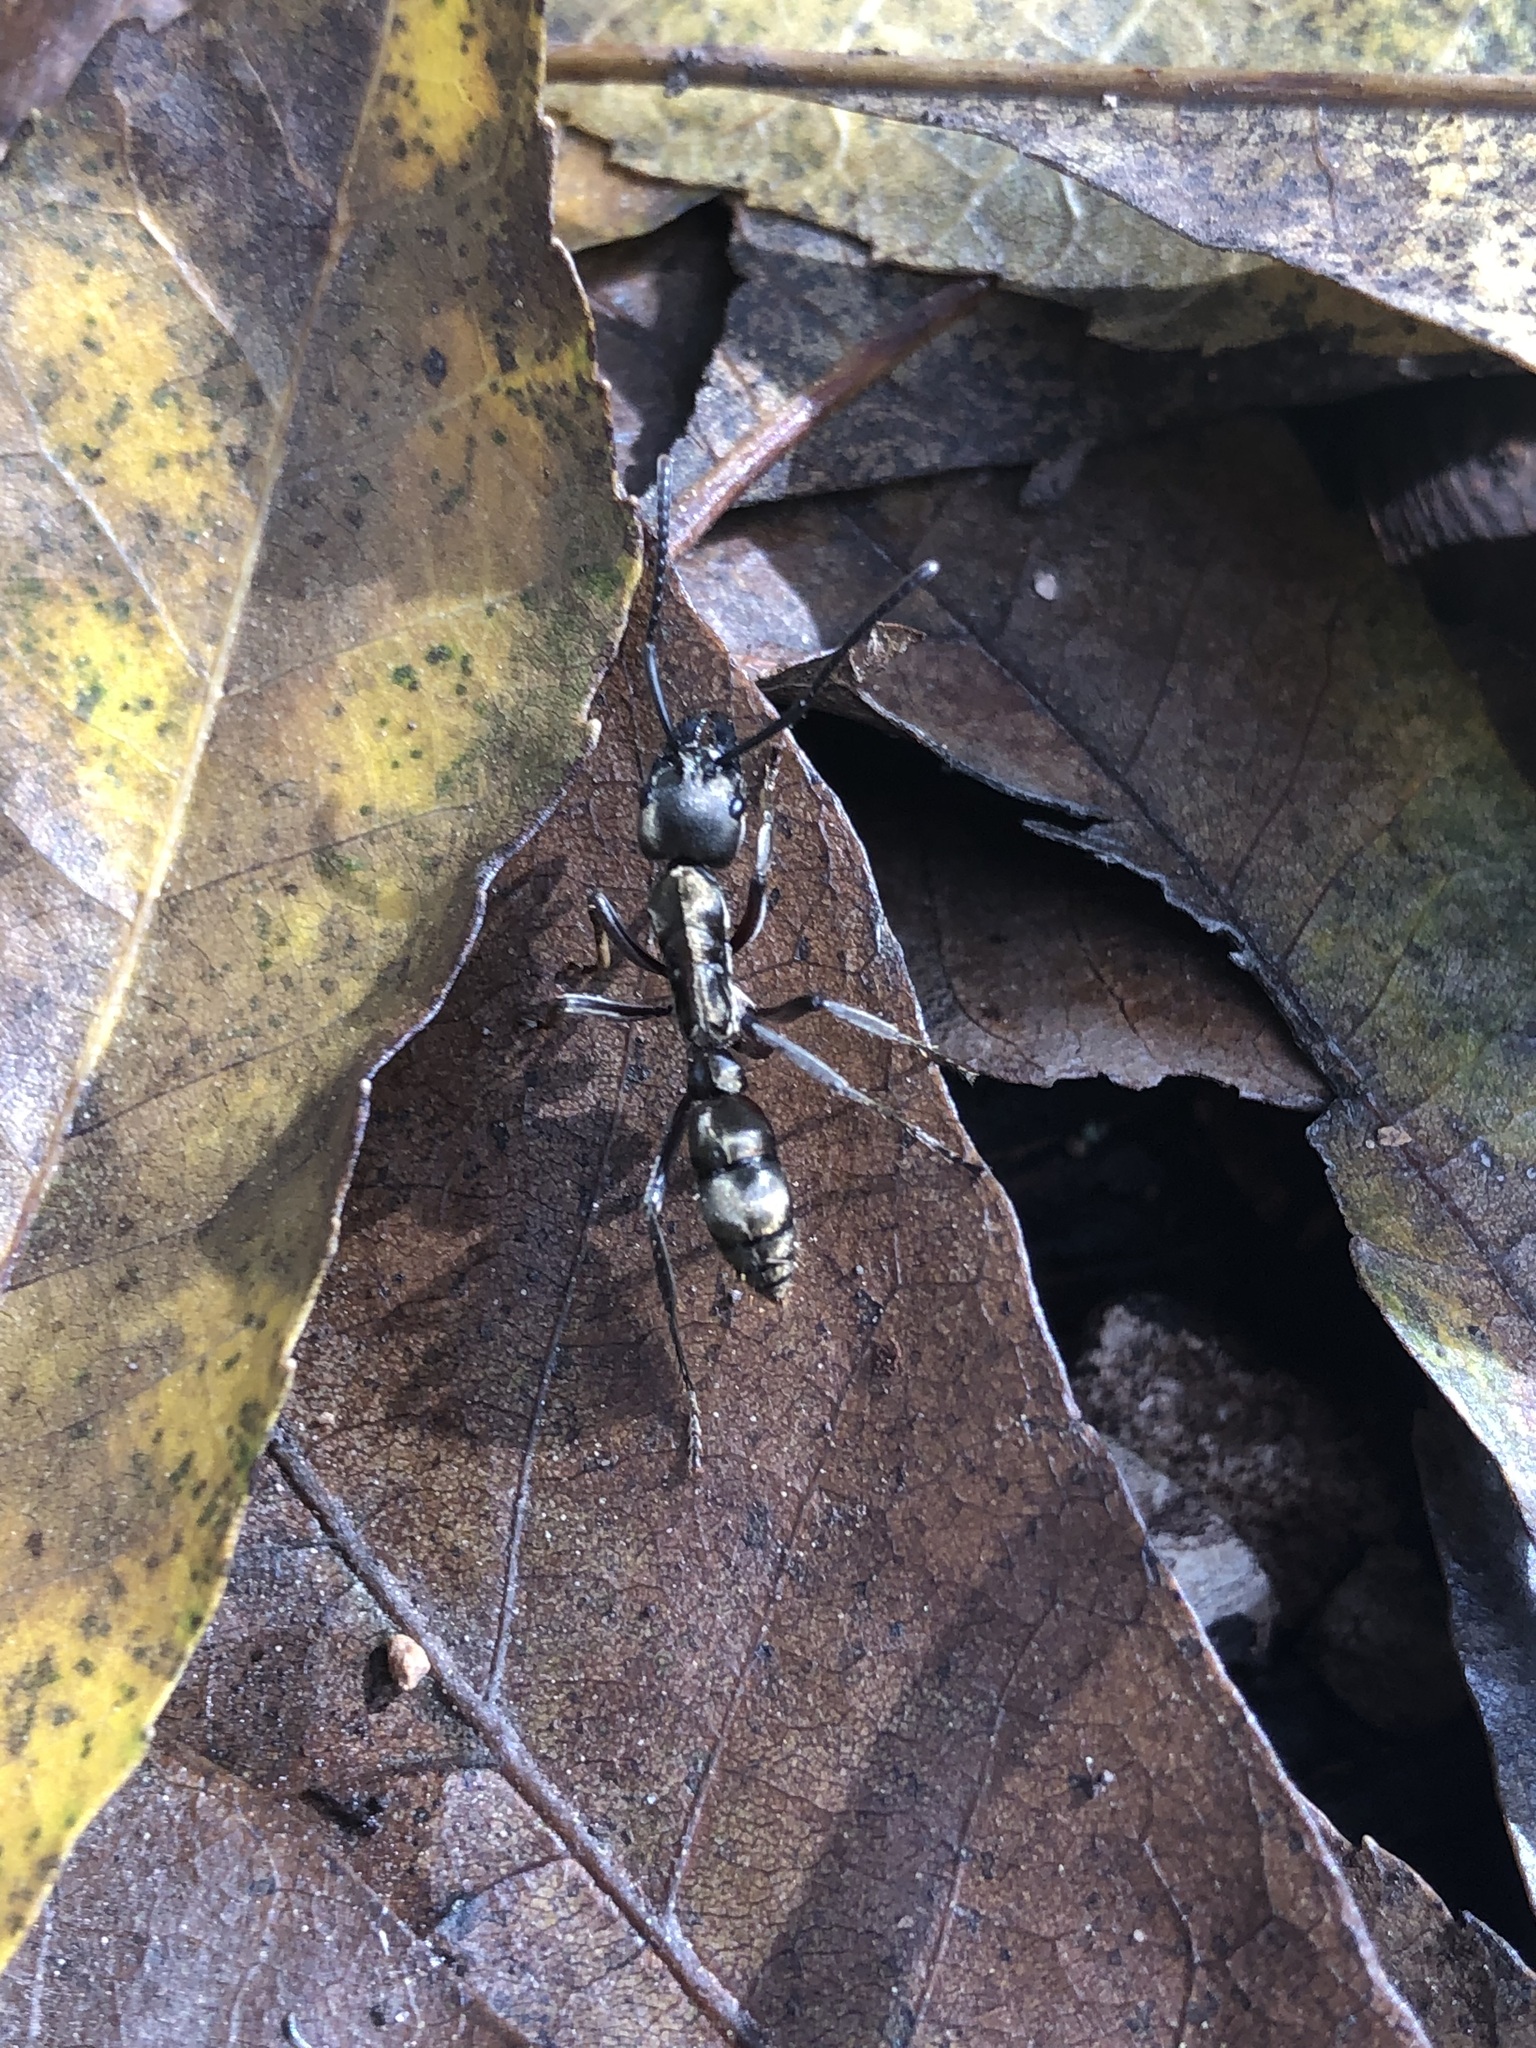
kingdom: Animalia
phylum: Arthropoda
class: Insecta
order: Hymenoptera
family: Formicidae
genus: Pachycondyla
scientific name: Pachycondyla villosa
